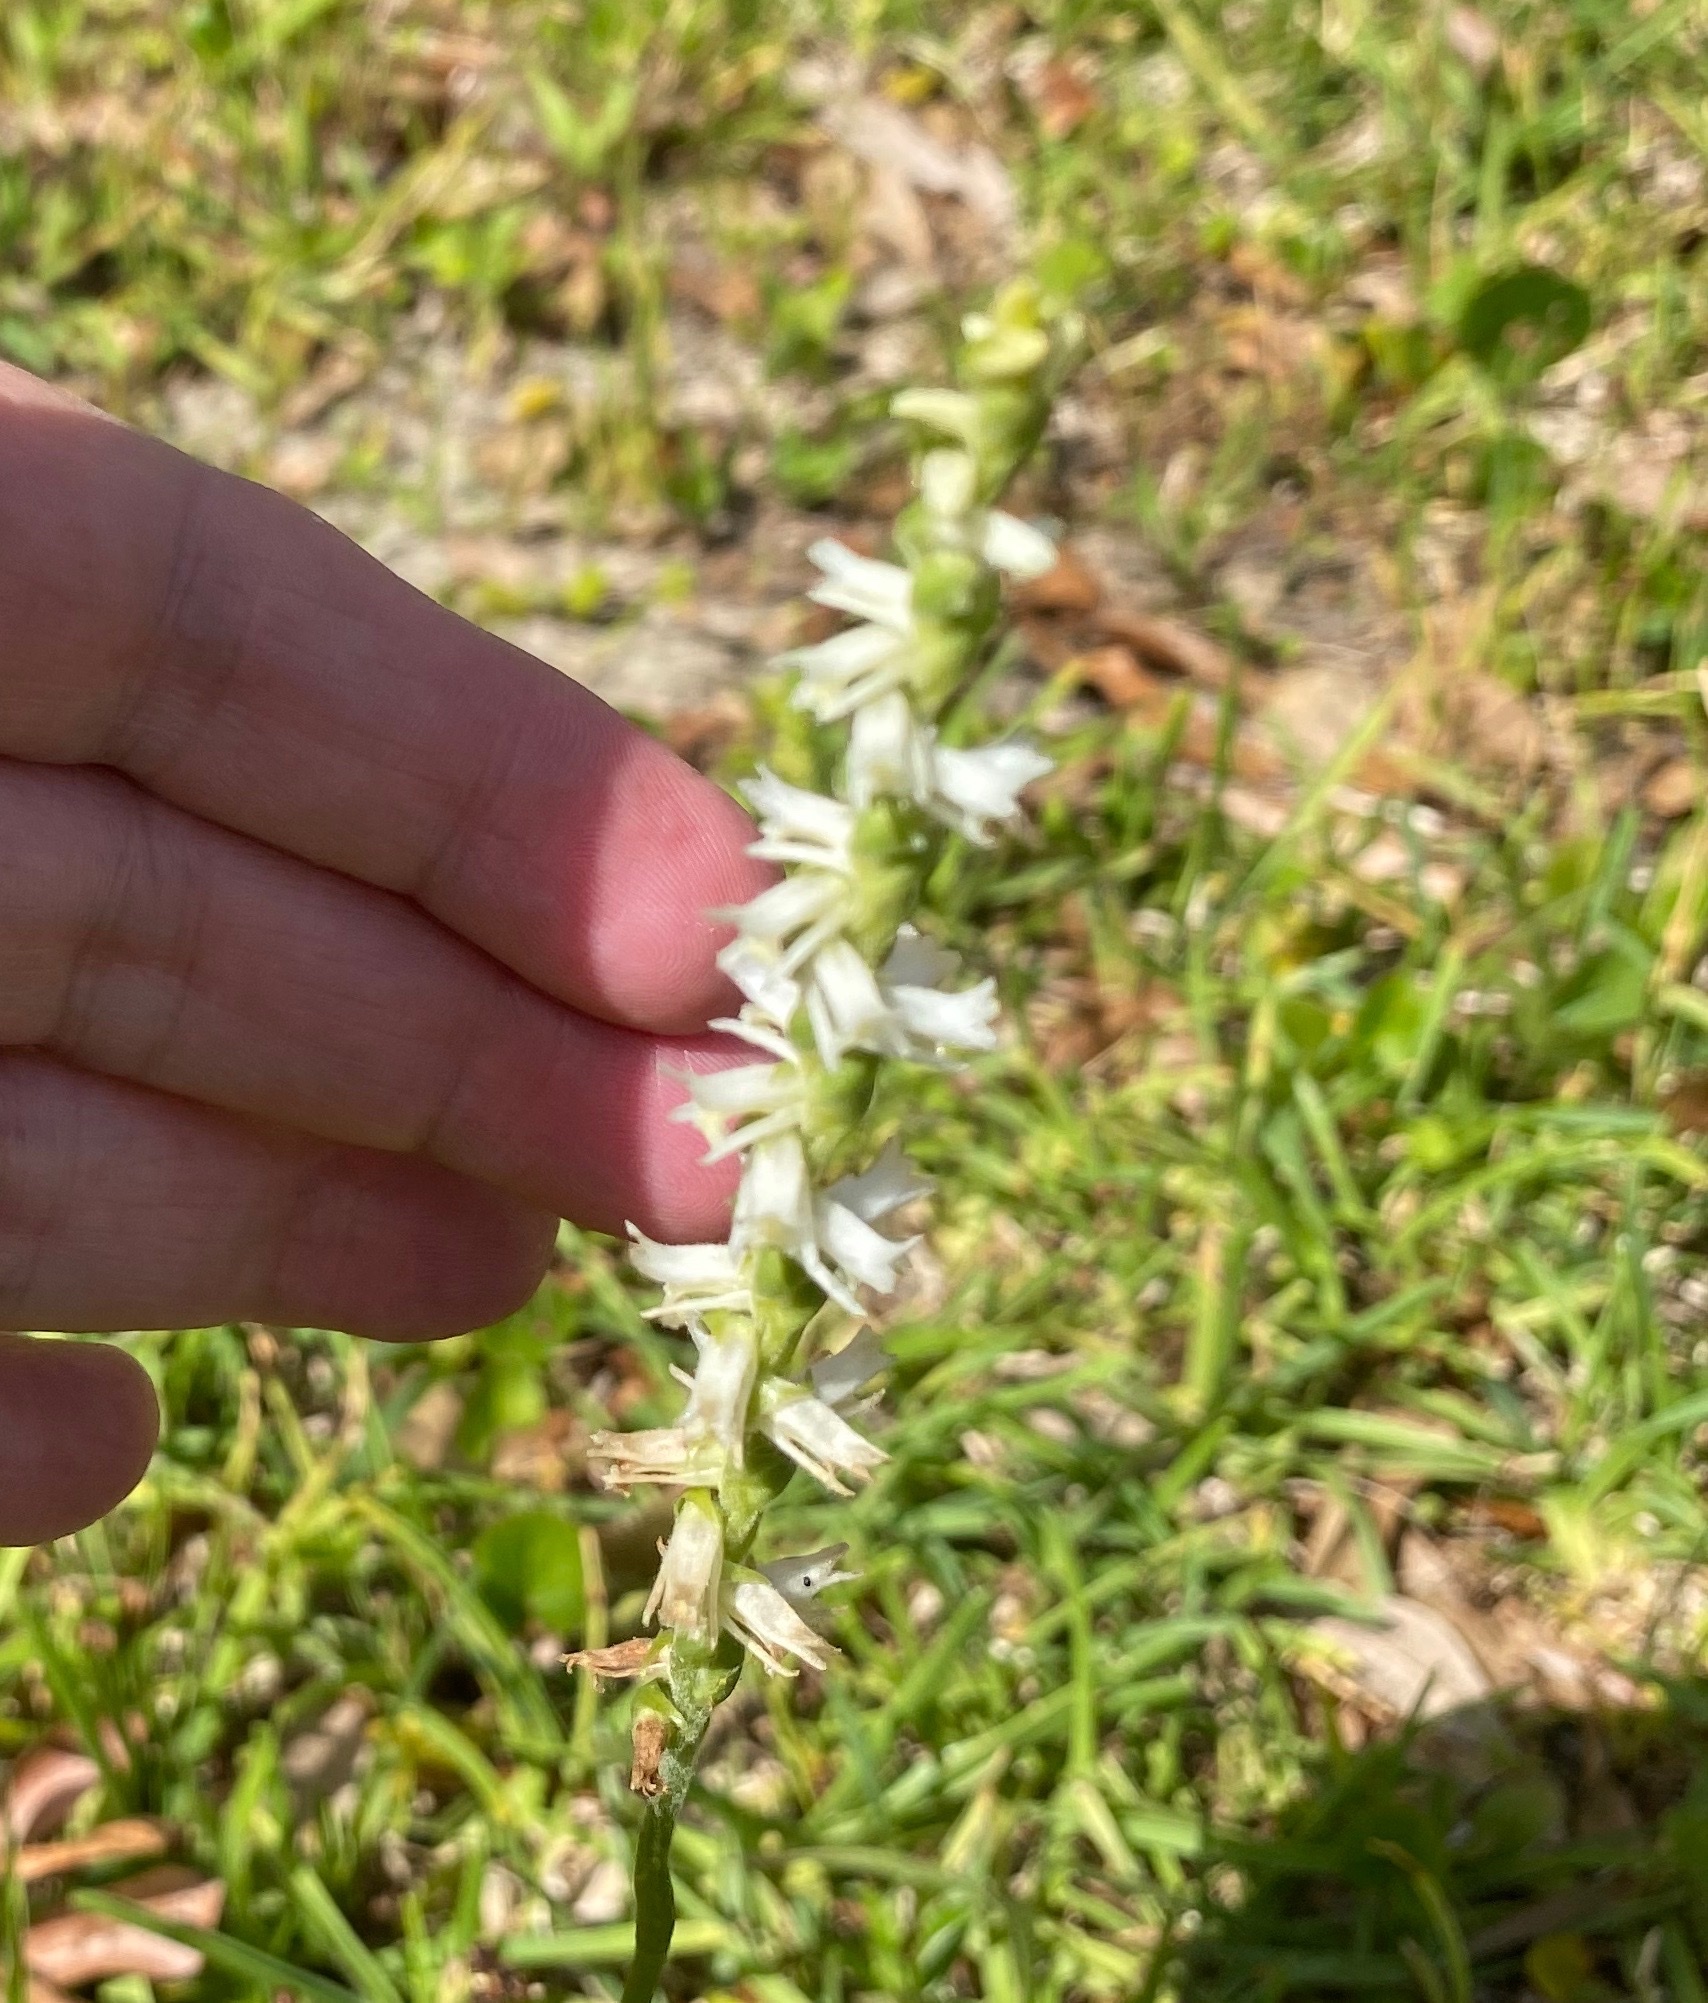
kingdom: Plantae
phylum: Tracheophyta
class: Liliopsida
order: Asparagales
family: Orchidaceae
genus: Spiranthes
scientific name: Spiranthes vernalis
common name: Spring ladies'-tresses
